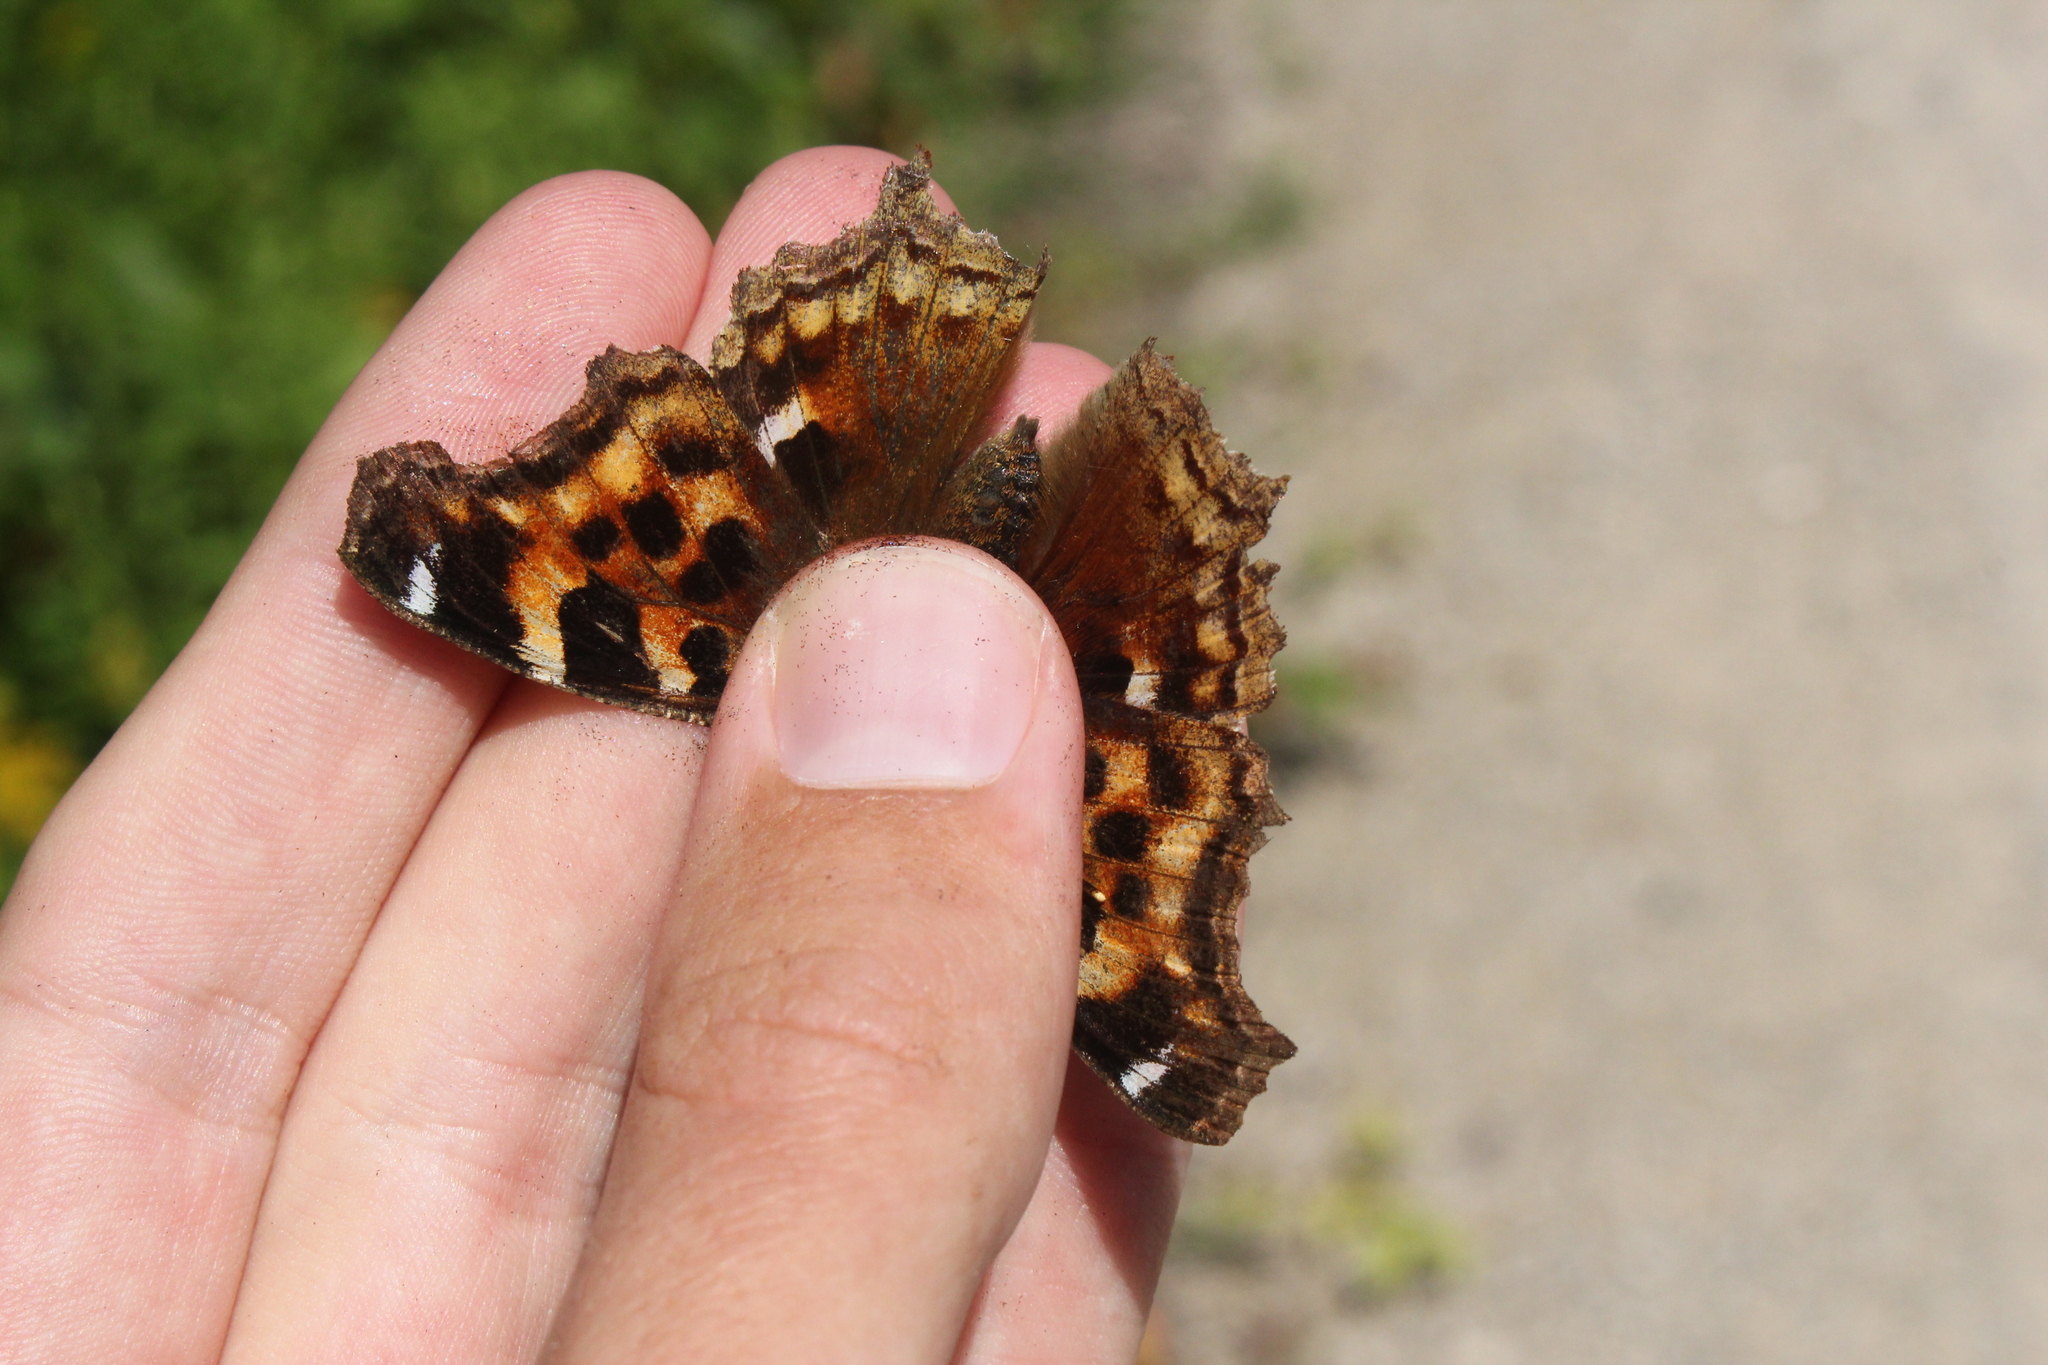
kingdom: Animalia
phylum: Arthropoda
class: Insecta
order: Lepidoptera
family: Nymphalidae
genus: Polygonia
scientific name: Polygonia vaualbum
